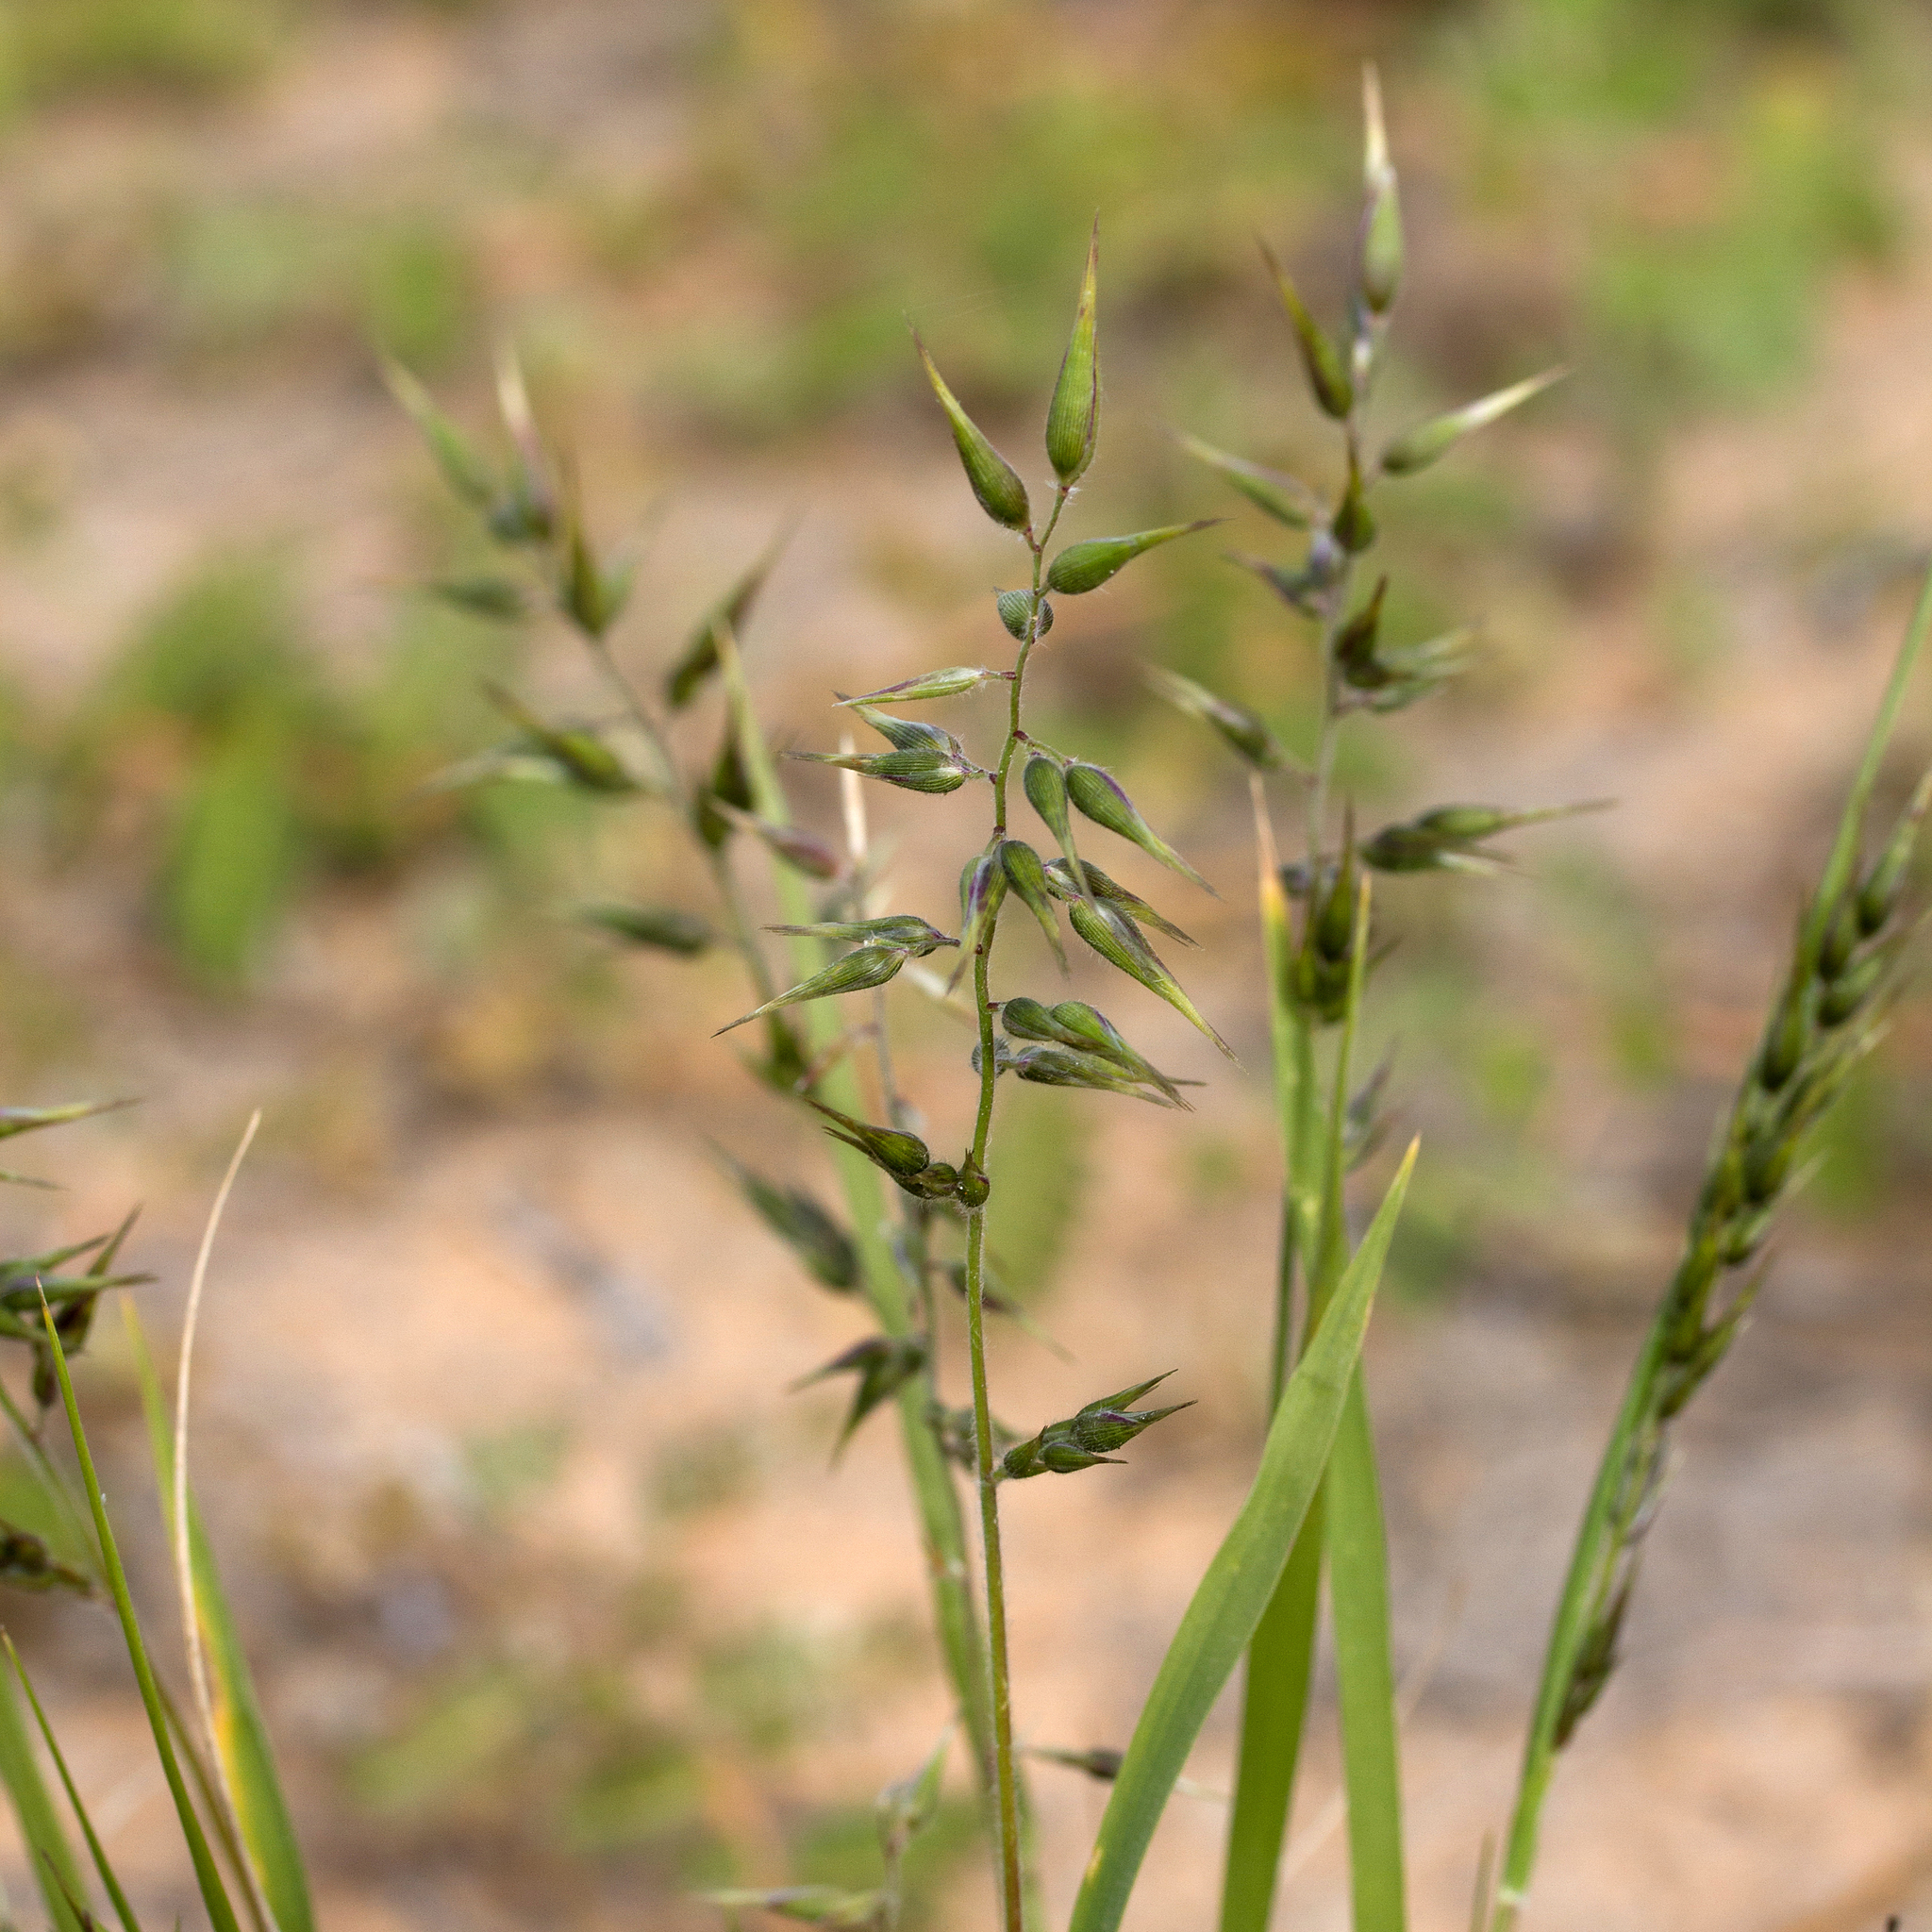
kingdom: Plantae
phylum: Tracheophyta
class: Liliopsida
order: Poales
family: Poaceae
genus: Enneapogon
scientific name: Enneapogon avenaceus
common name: Hairy oat grass
